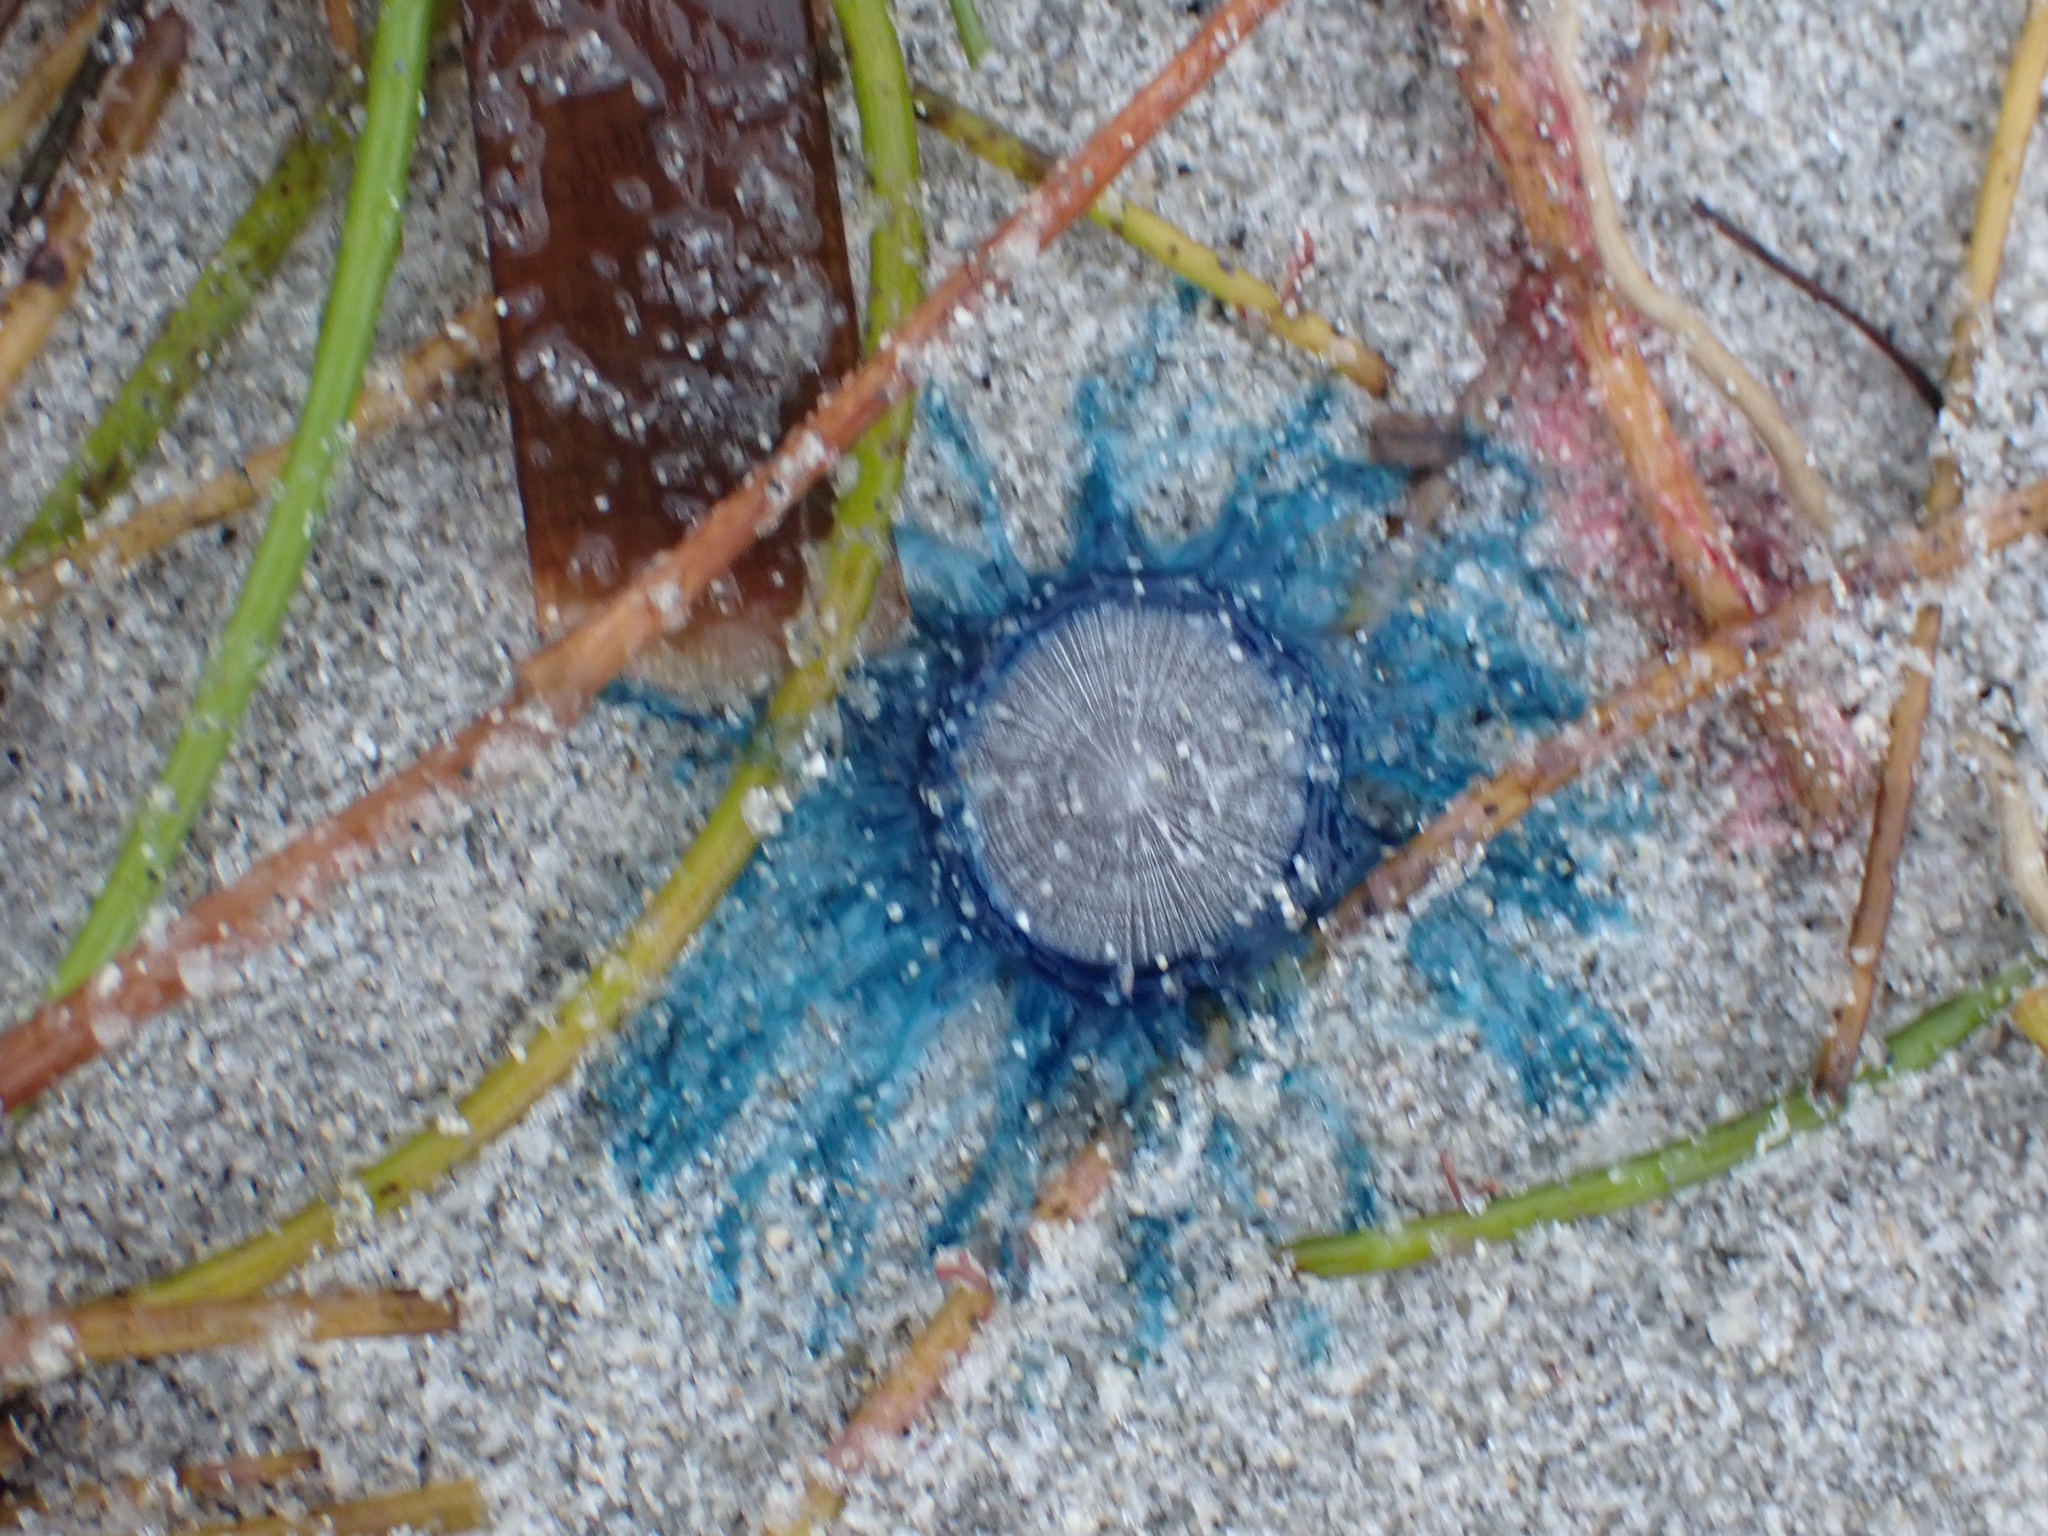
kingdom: Animalia
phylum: Cnidaria
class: Hydrozoa
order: Anthoathecata
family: Porpitidae
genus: Porpita
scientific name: Porpita porpita
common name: Blue button
